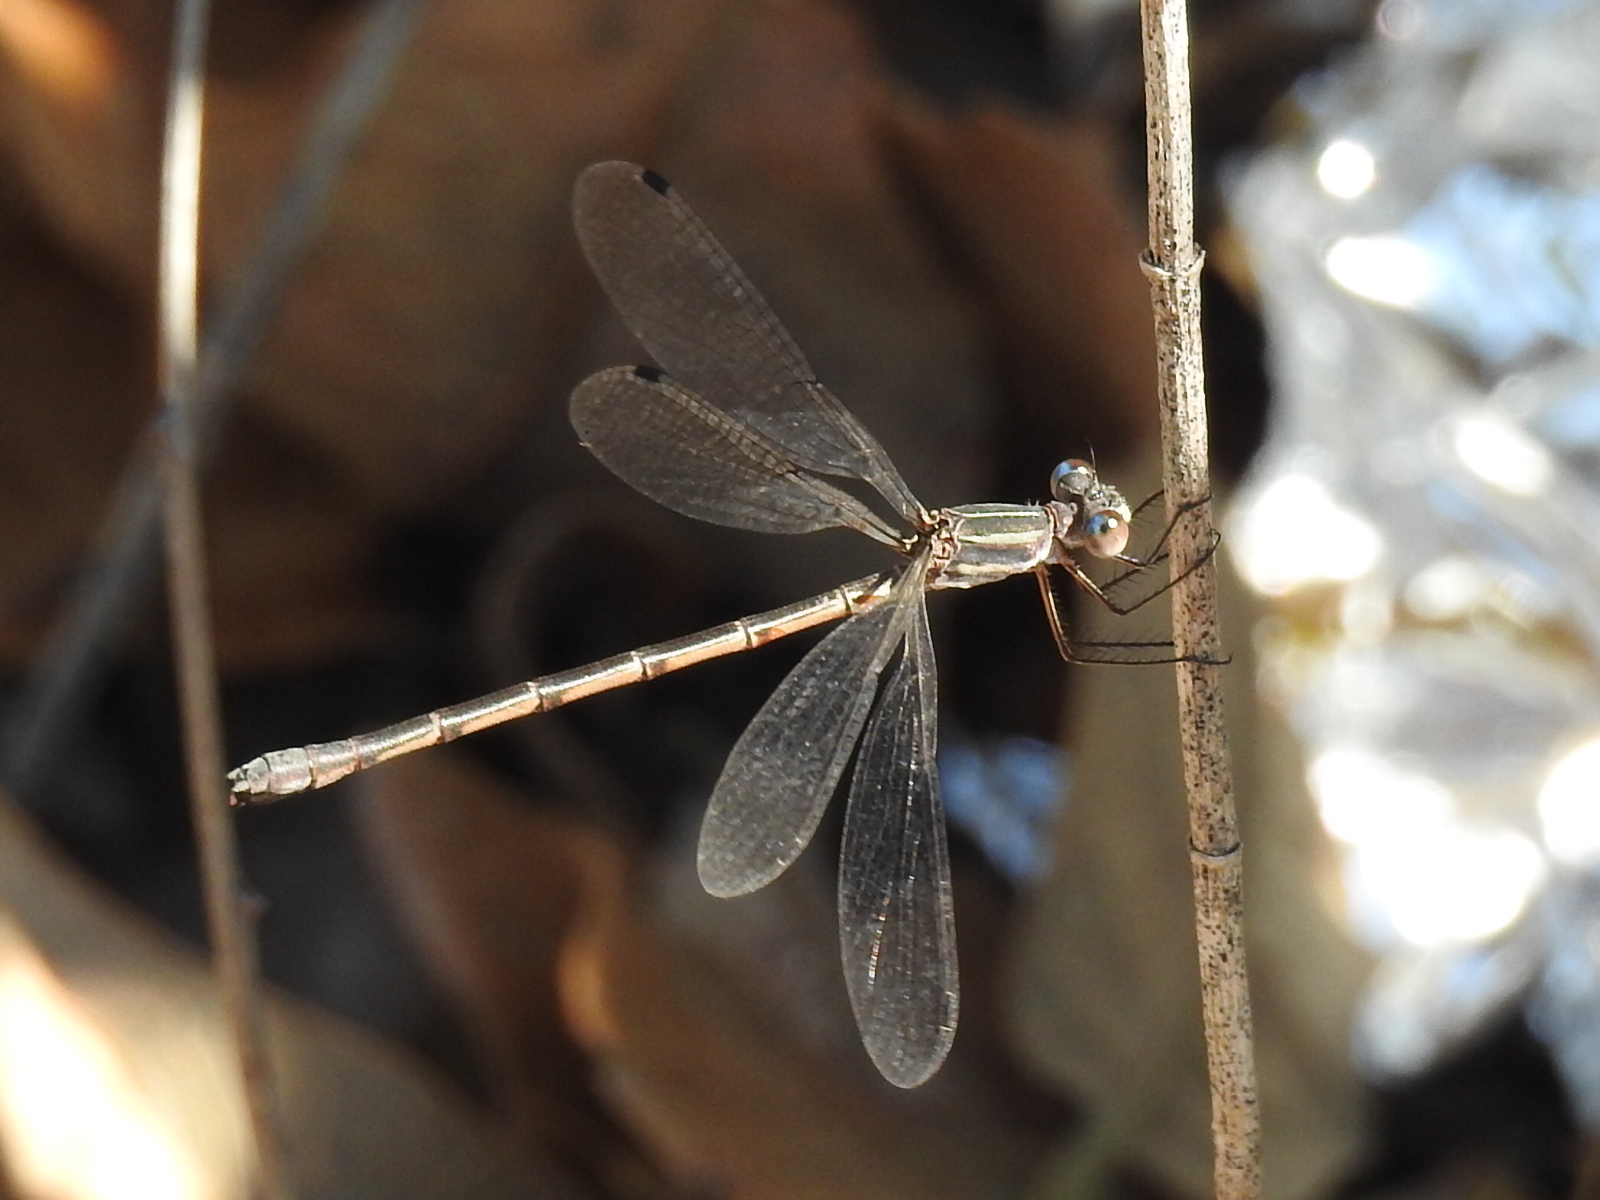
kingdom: Animalia
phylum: Arthropoda
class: Insecta
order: Odonata
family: Lestidae
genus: Lestes
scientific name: Lestes australis
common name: Southern spreadwing
